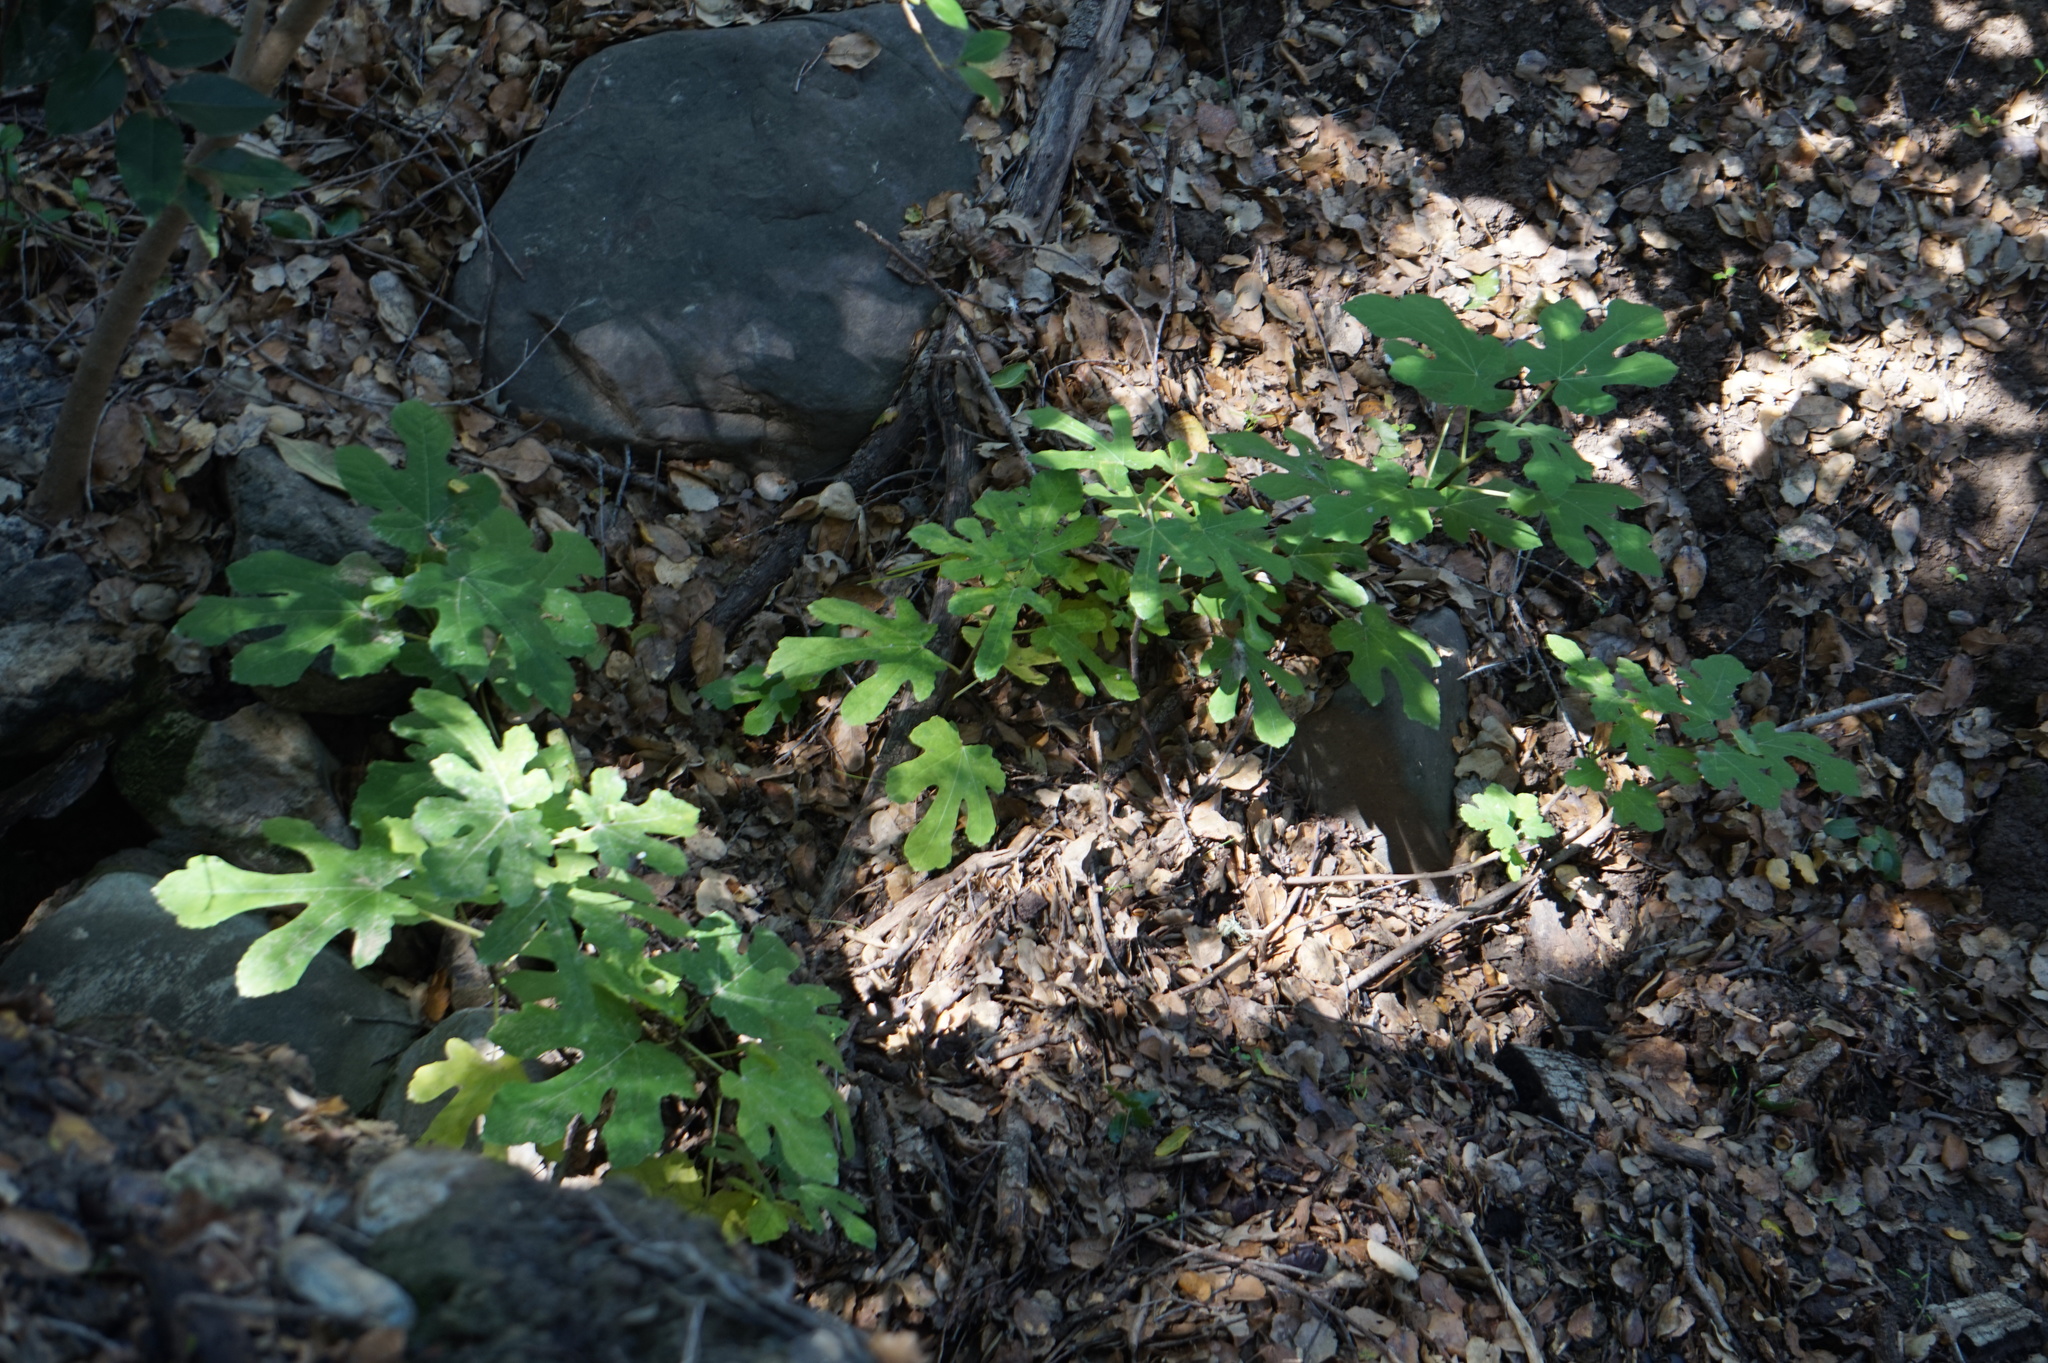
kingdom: Plantae
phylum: Tracheophyta
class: Magnoliopsida
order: Rosales
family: Moraceae
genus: Ficus
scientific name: Ficus carica
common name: Fig
